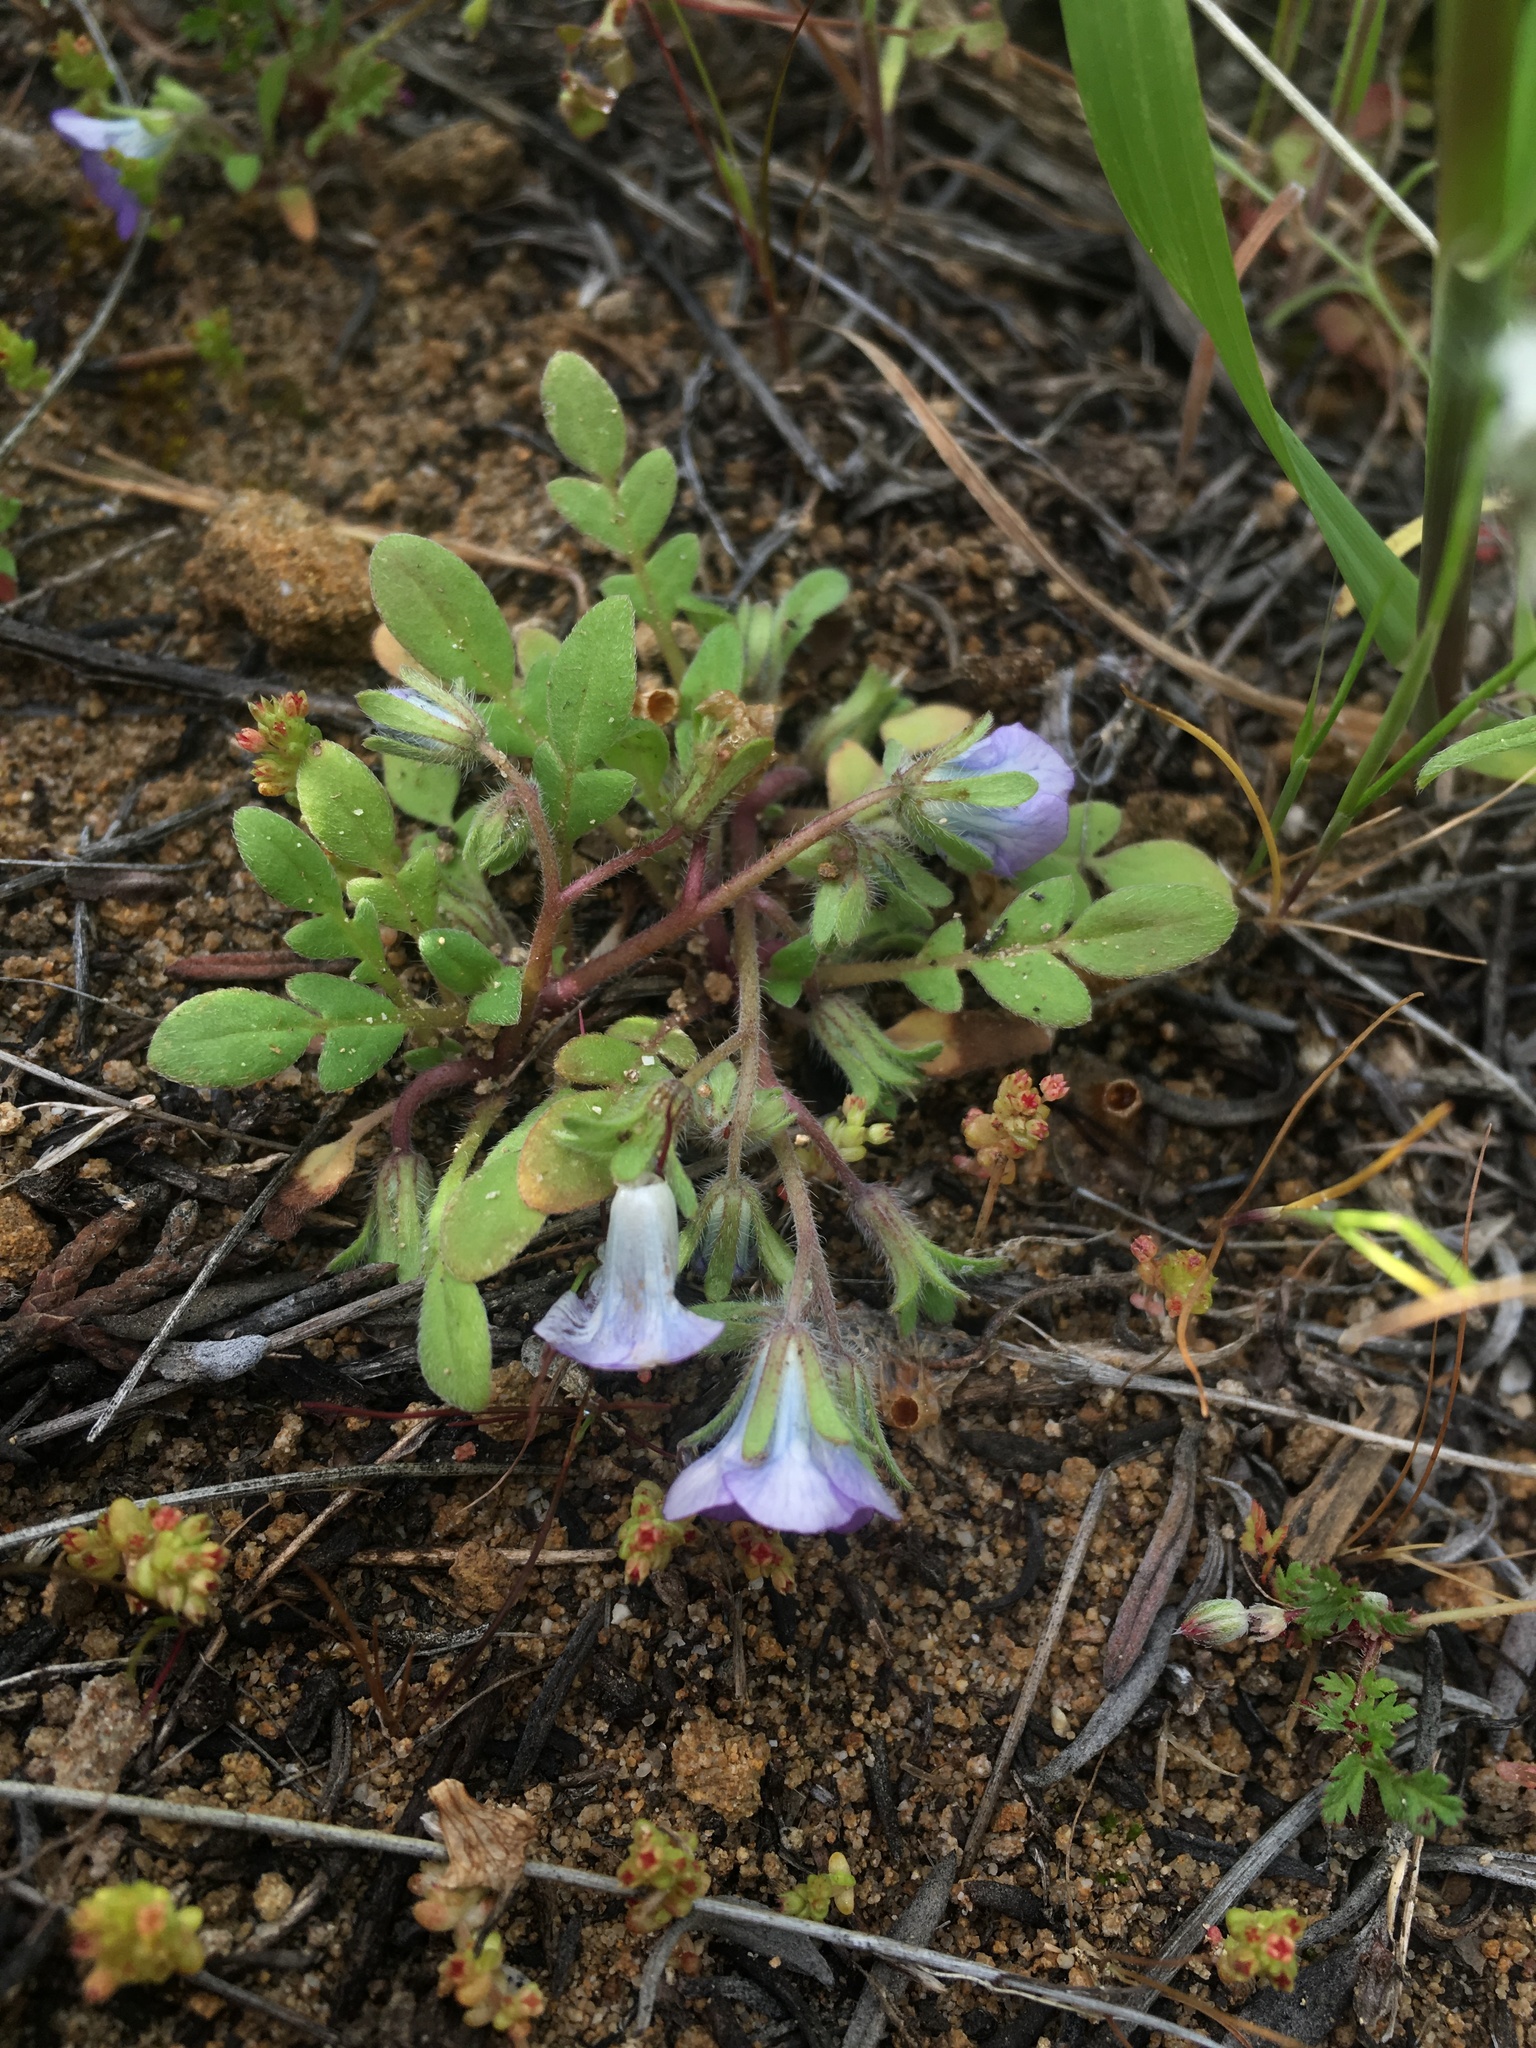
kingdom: Plantae
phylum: Tracheophyta
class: Magnoliopsida
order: Boraginales
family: Hydrophyllaceae
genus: Phacelia
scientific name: Phacelia douglasii
